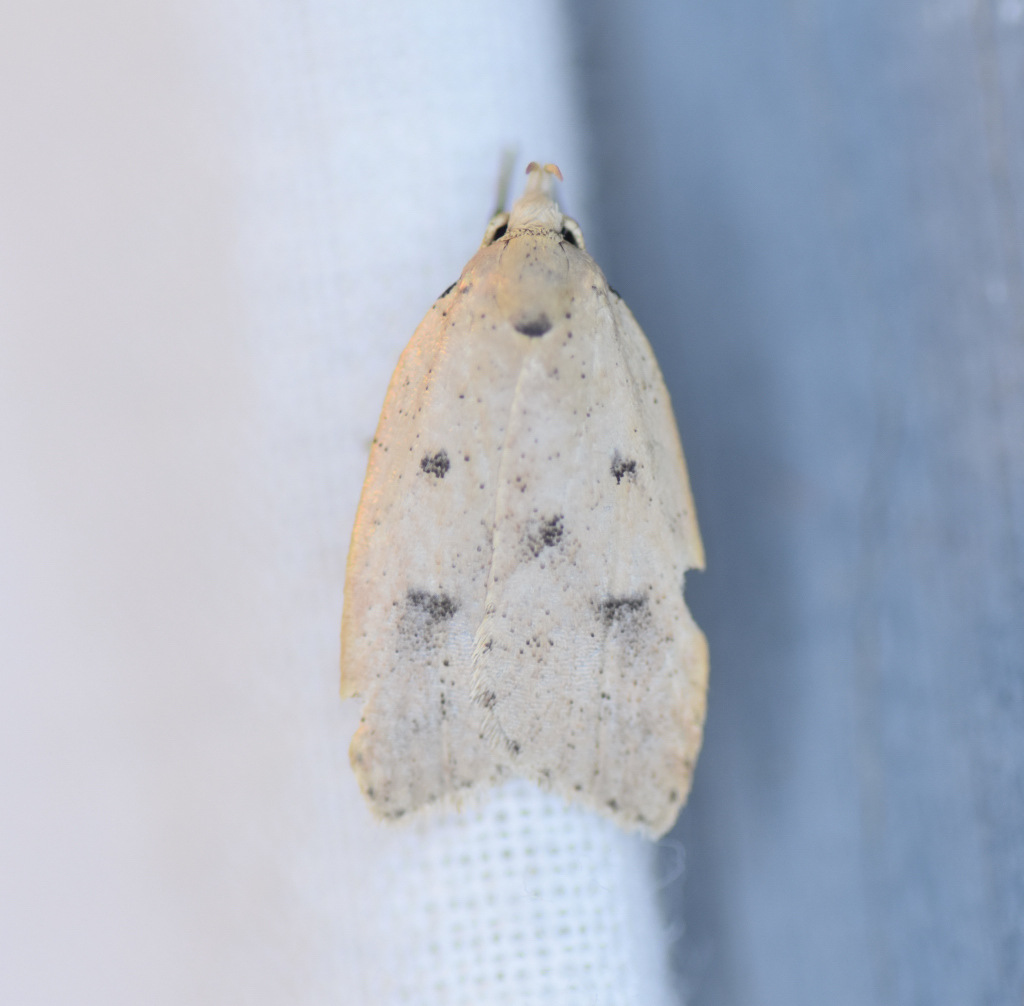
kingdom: Animalia
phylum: Arthropoda
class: Insecta
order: Lepidoptera
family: Peleopodidae
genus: Machimia
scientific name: Machimia tentoriferella
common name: Gold-striped leaftier moth
